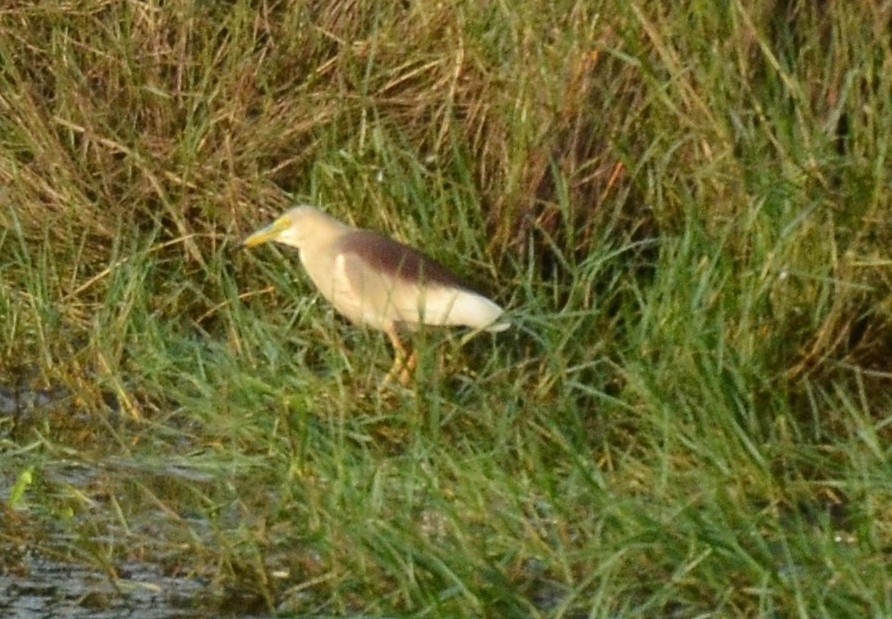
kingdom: Animalia
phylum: Chordata
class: Aves
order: Pelecaniformes
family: Ardeidae
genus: Ardeola
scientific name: Ardeola grayii
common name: Indian pond heron
